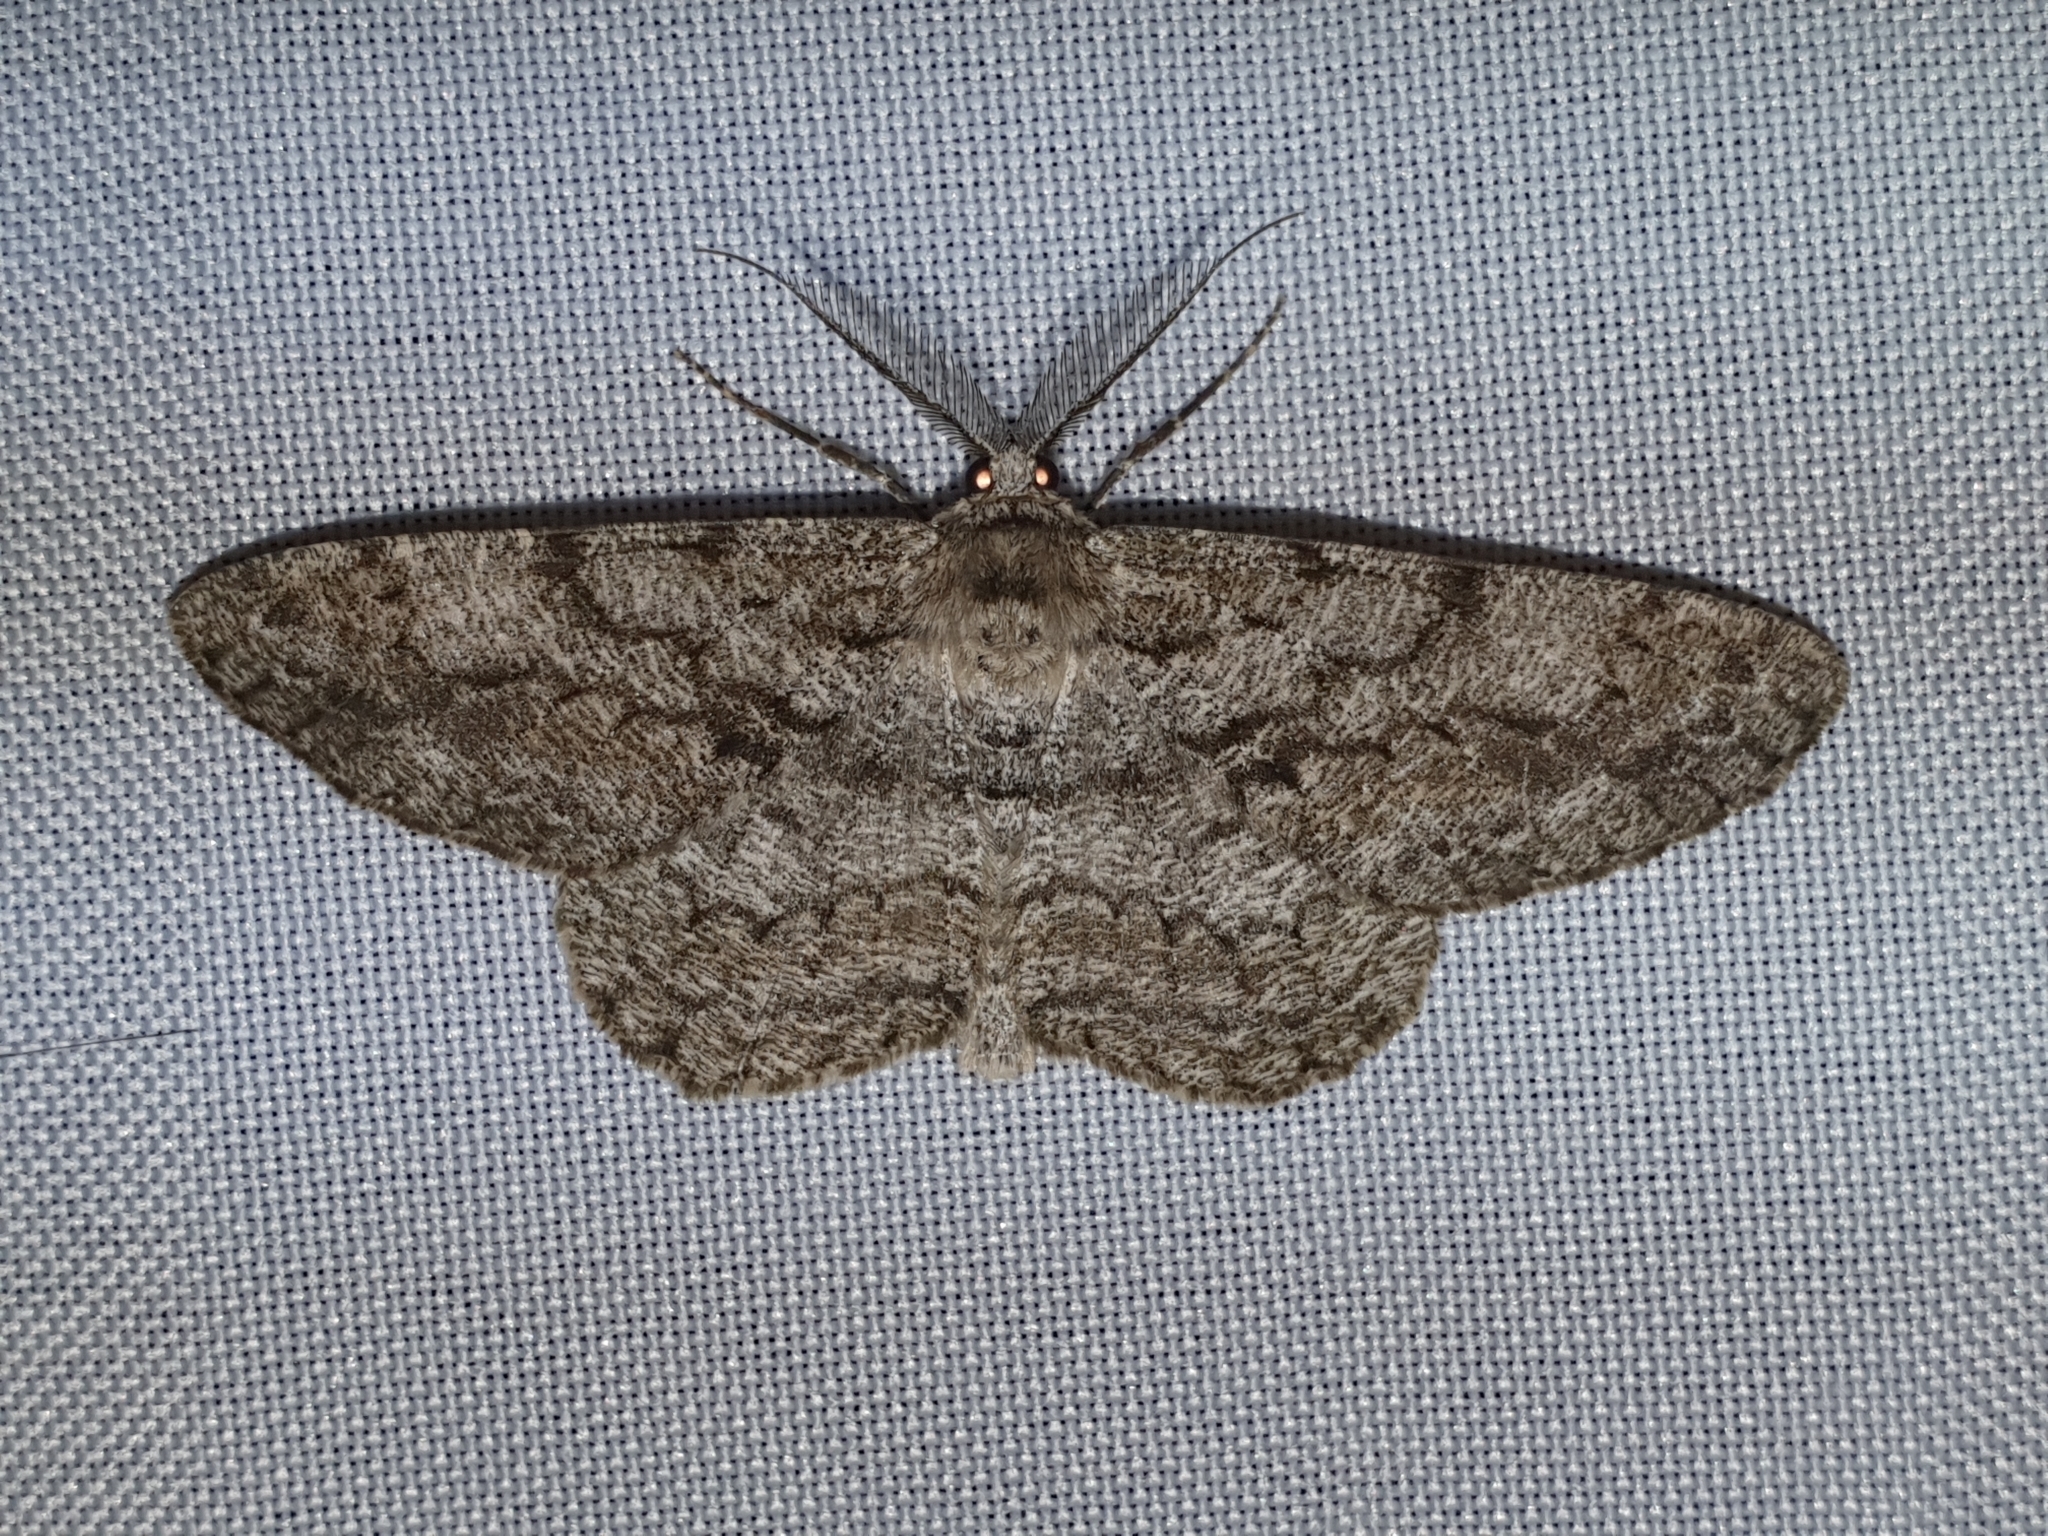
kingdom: Animalia
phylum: Arthropoda
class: Insecta
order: Lepidoptera
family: Geometridae
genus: Hypomecis
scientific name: Hypomecis roboraria
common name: Great oak beauty
